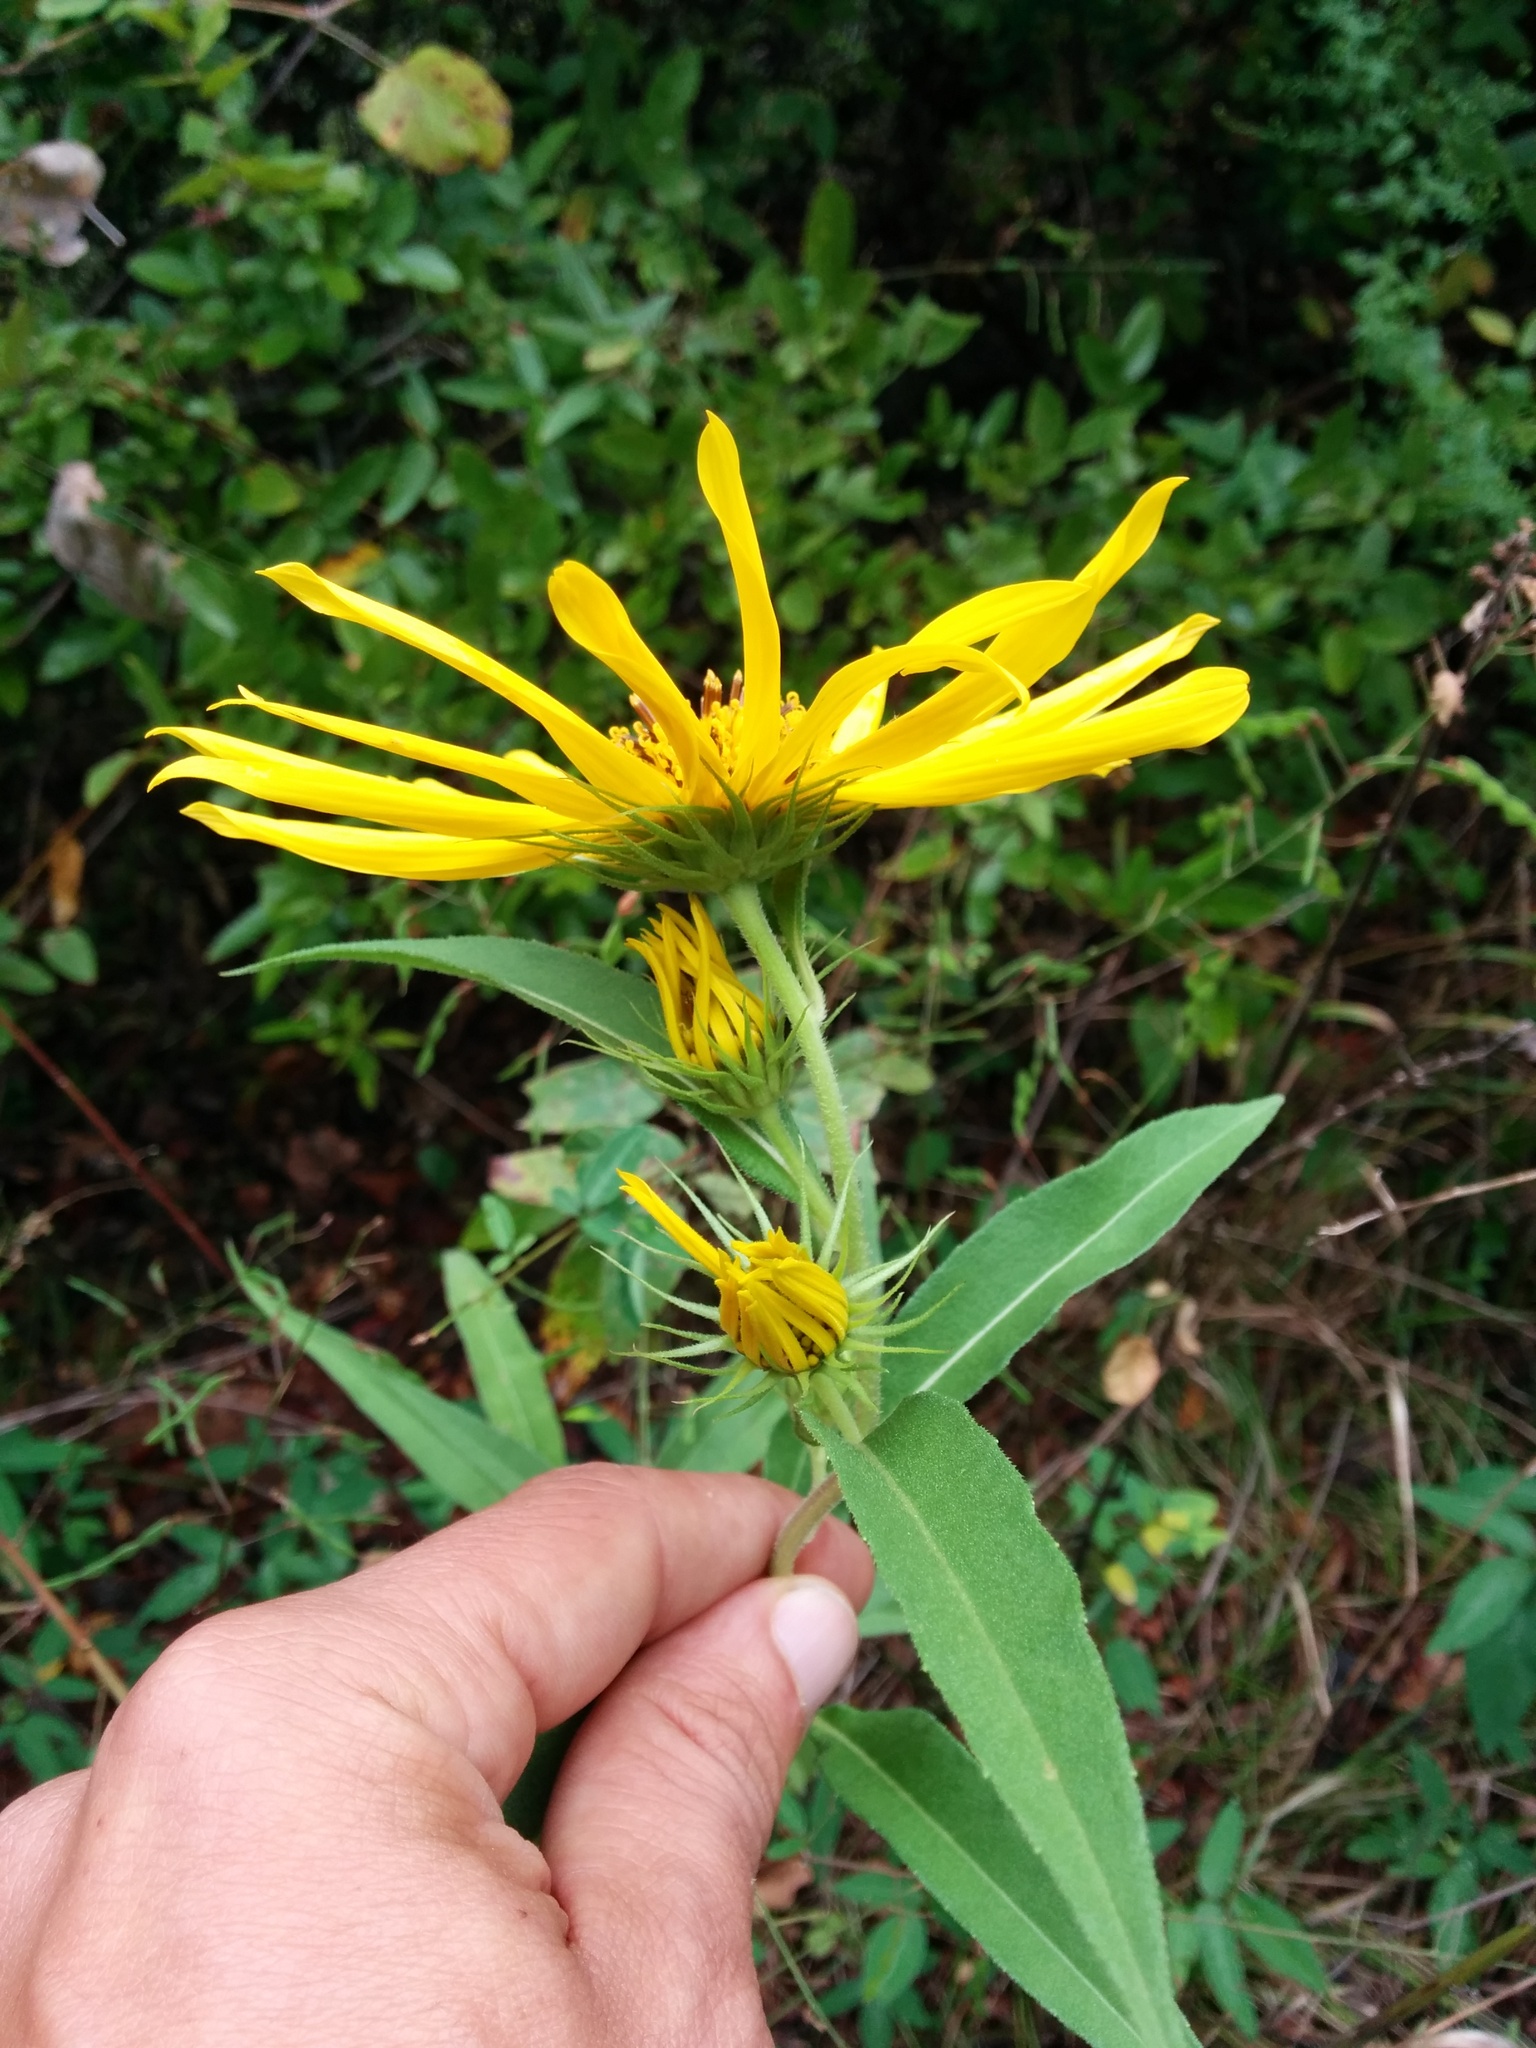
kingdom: Plantae
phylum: Tracheophyta
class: Magnoliopsida
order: Asterales
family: Asteraceae
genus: Helianthus
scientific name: Helianthus maximiliani
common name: Maximilian's sunflower
